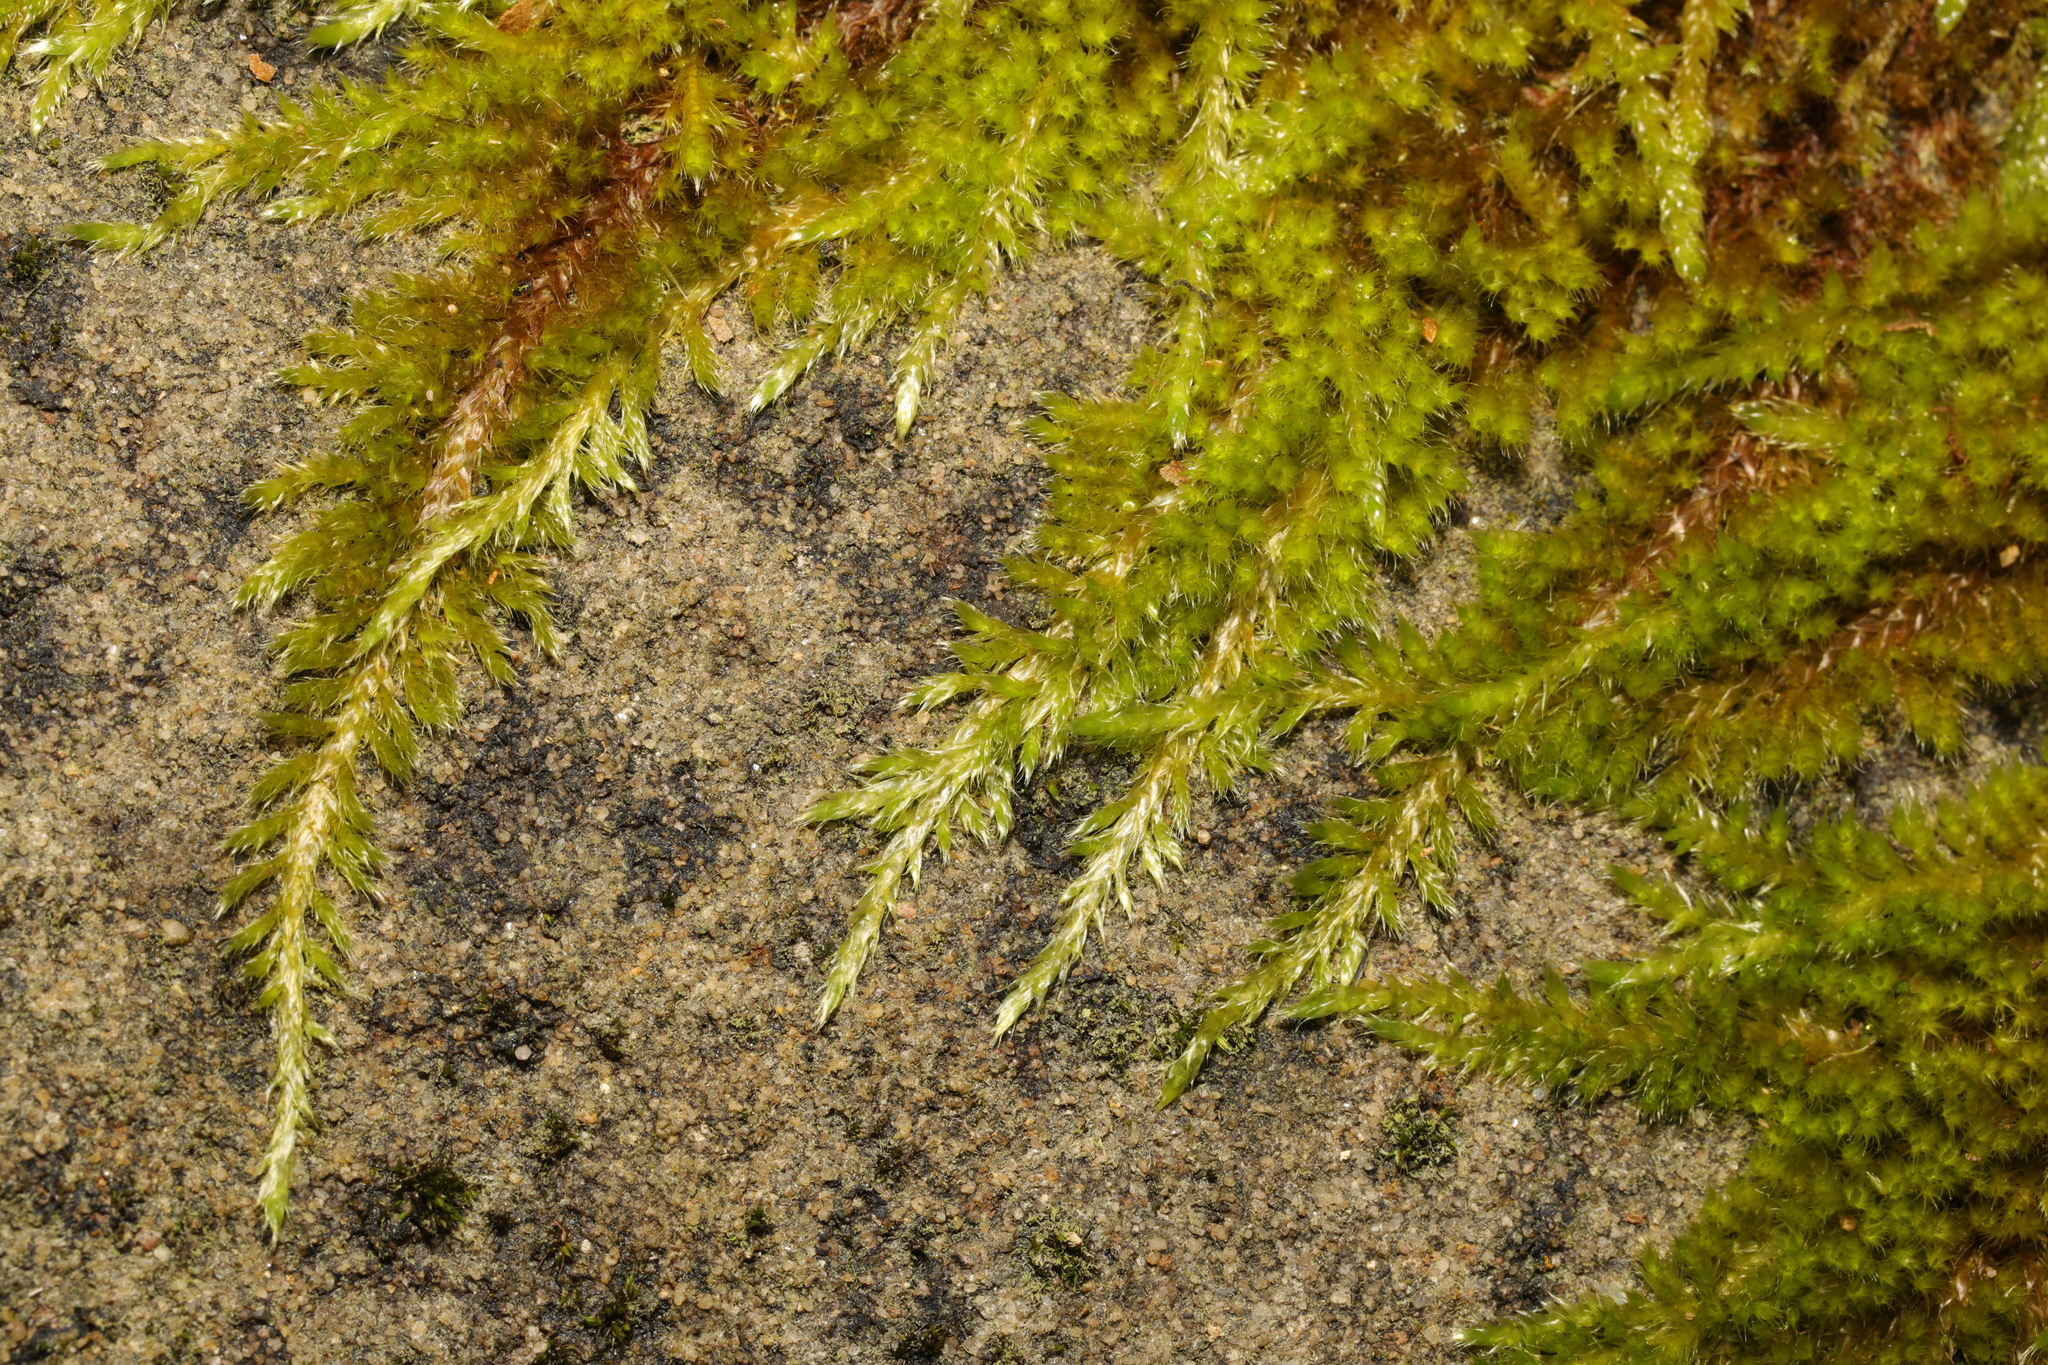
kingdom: Plantae
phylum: Bryophyta
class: Bryopsida
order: Hypnales
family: Brachytheciaceae
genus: Homalothecium
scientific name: Homalothecium sericeum
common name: Silky wall feather-moss
